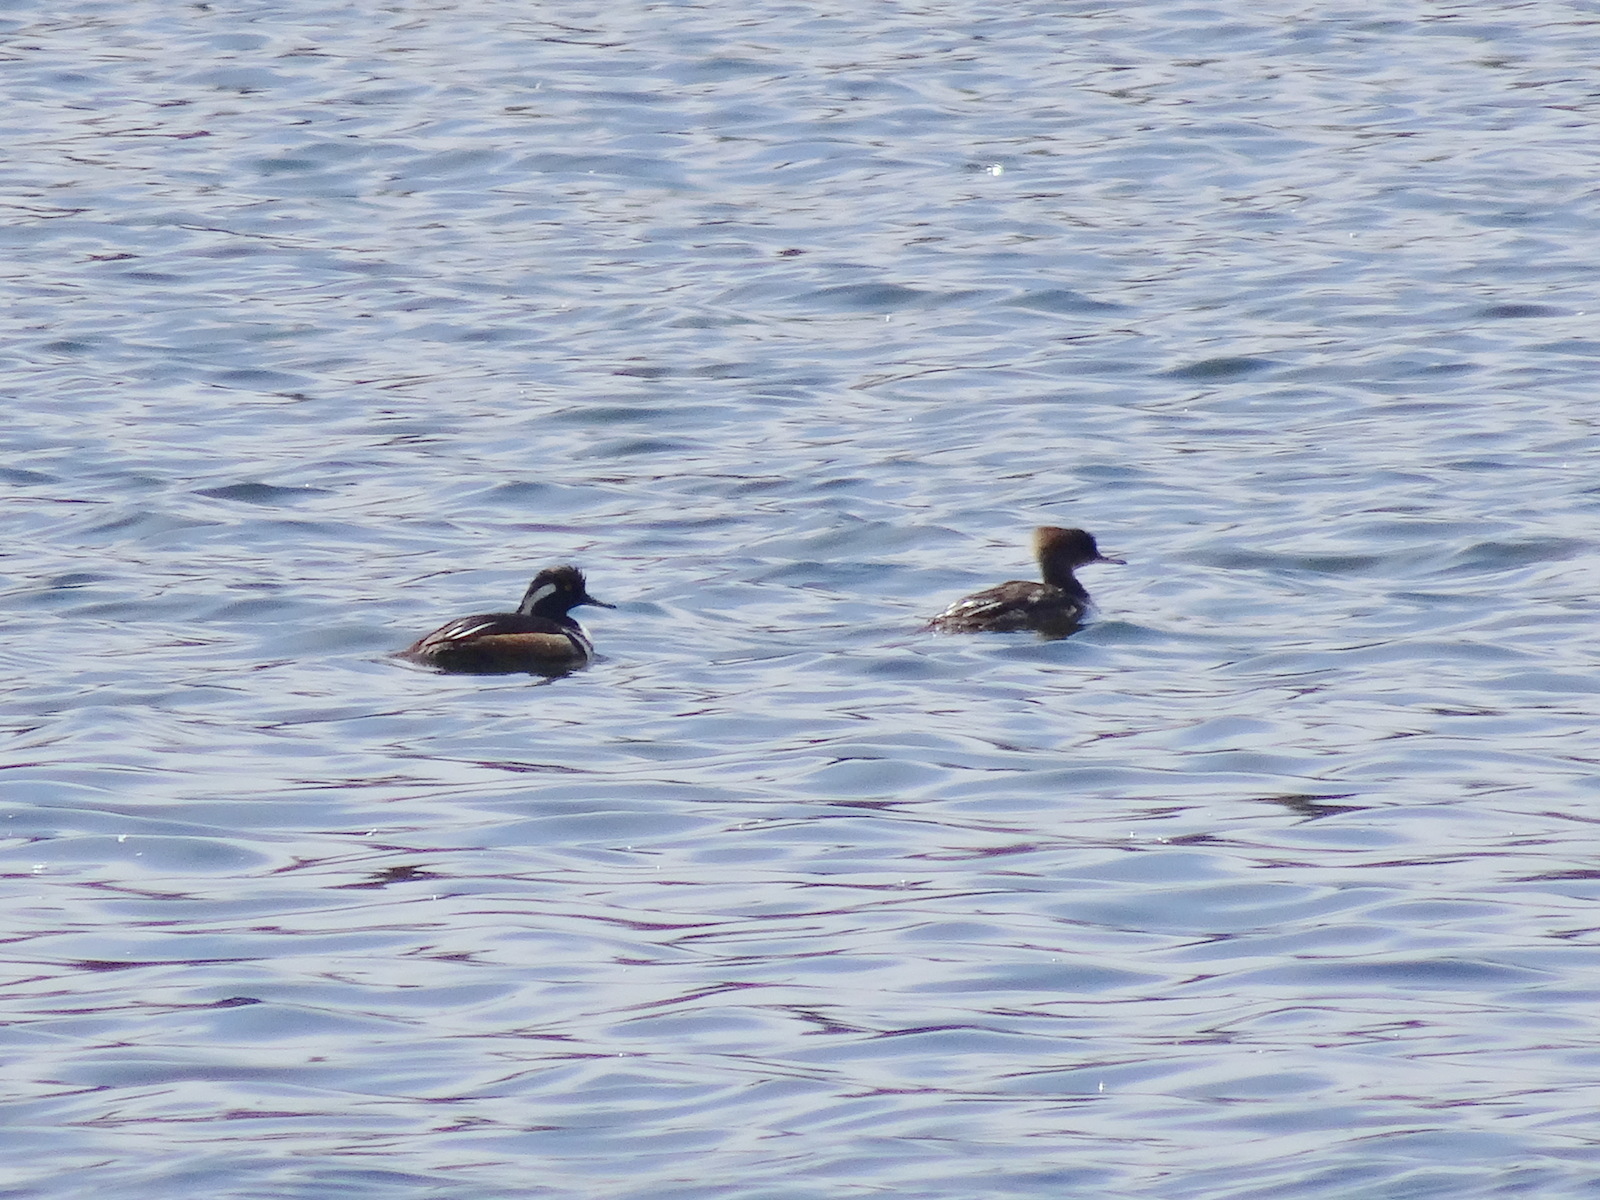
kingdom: Animalia
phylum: Chordata
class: Aves
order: Anseriformes
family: Anatidae
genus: Lophodytes
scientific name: Lophodytes cucullatus
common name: Hooded merganser
